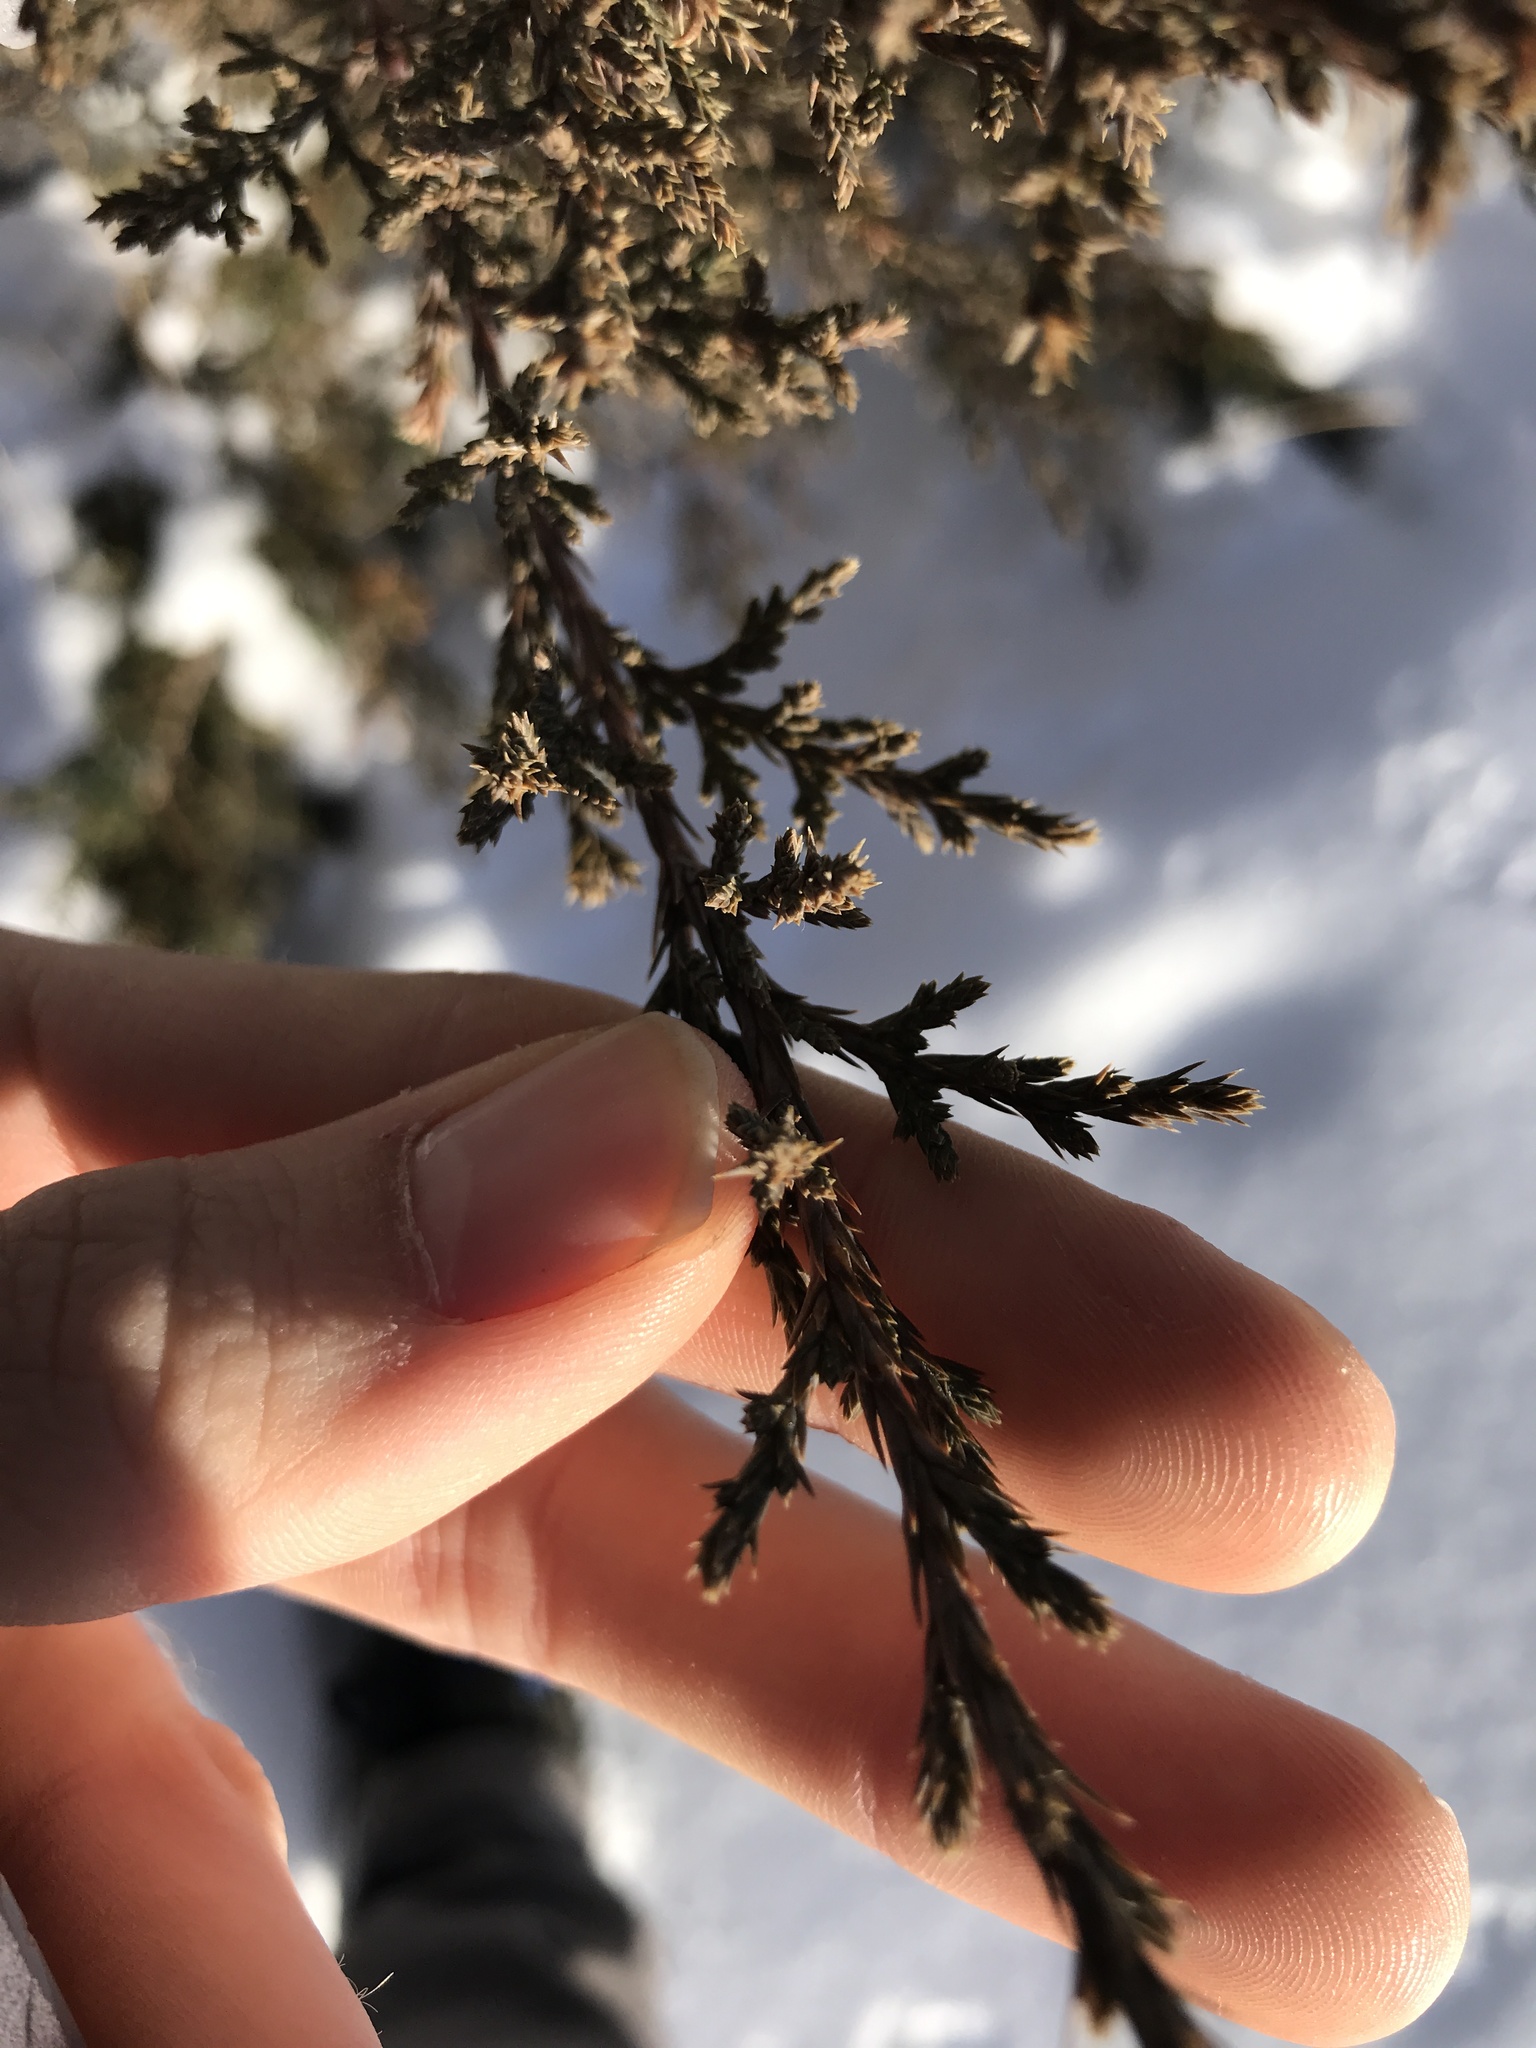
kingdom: Plantae
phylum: Tracheophyta
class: Pinopsida
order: Pinales
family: Cupressaceae
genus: Juniperus
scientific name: Juniperus virginiana
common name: Red juniper
